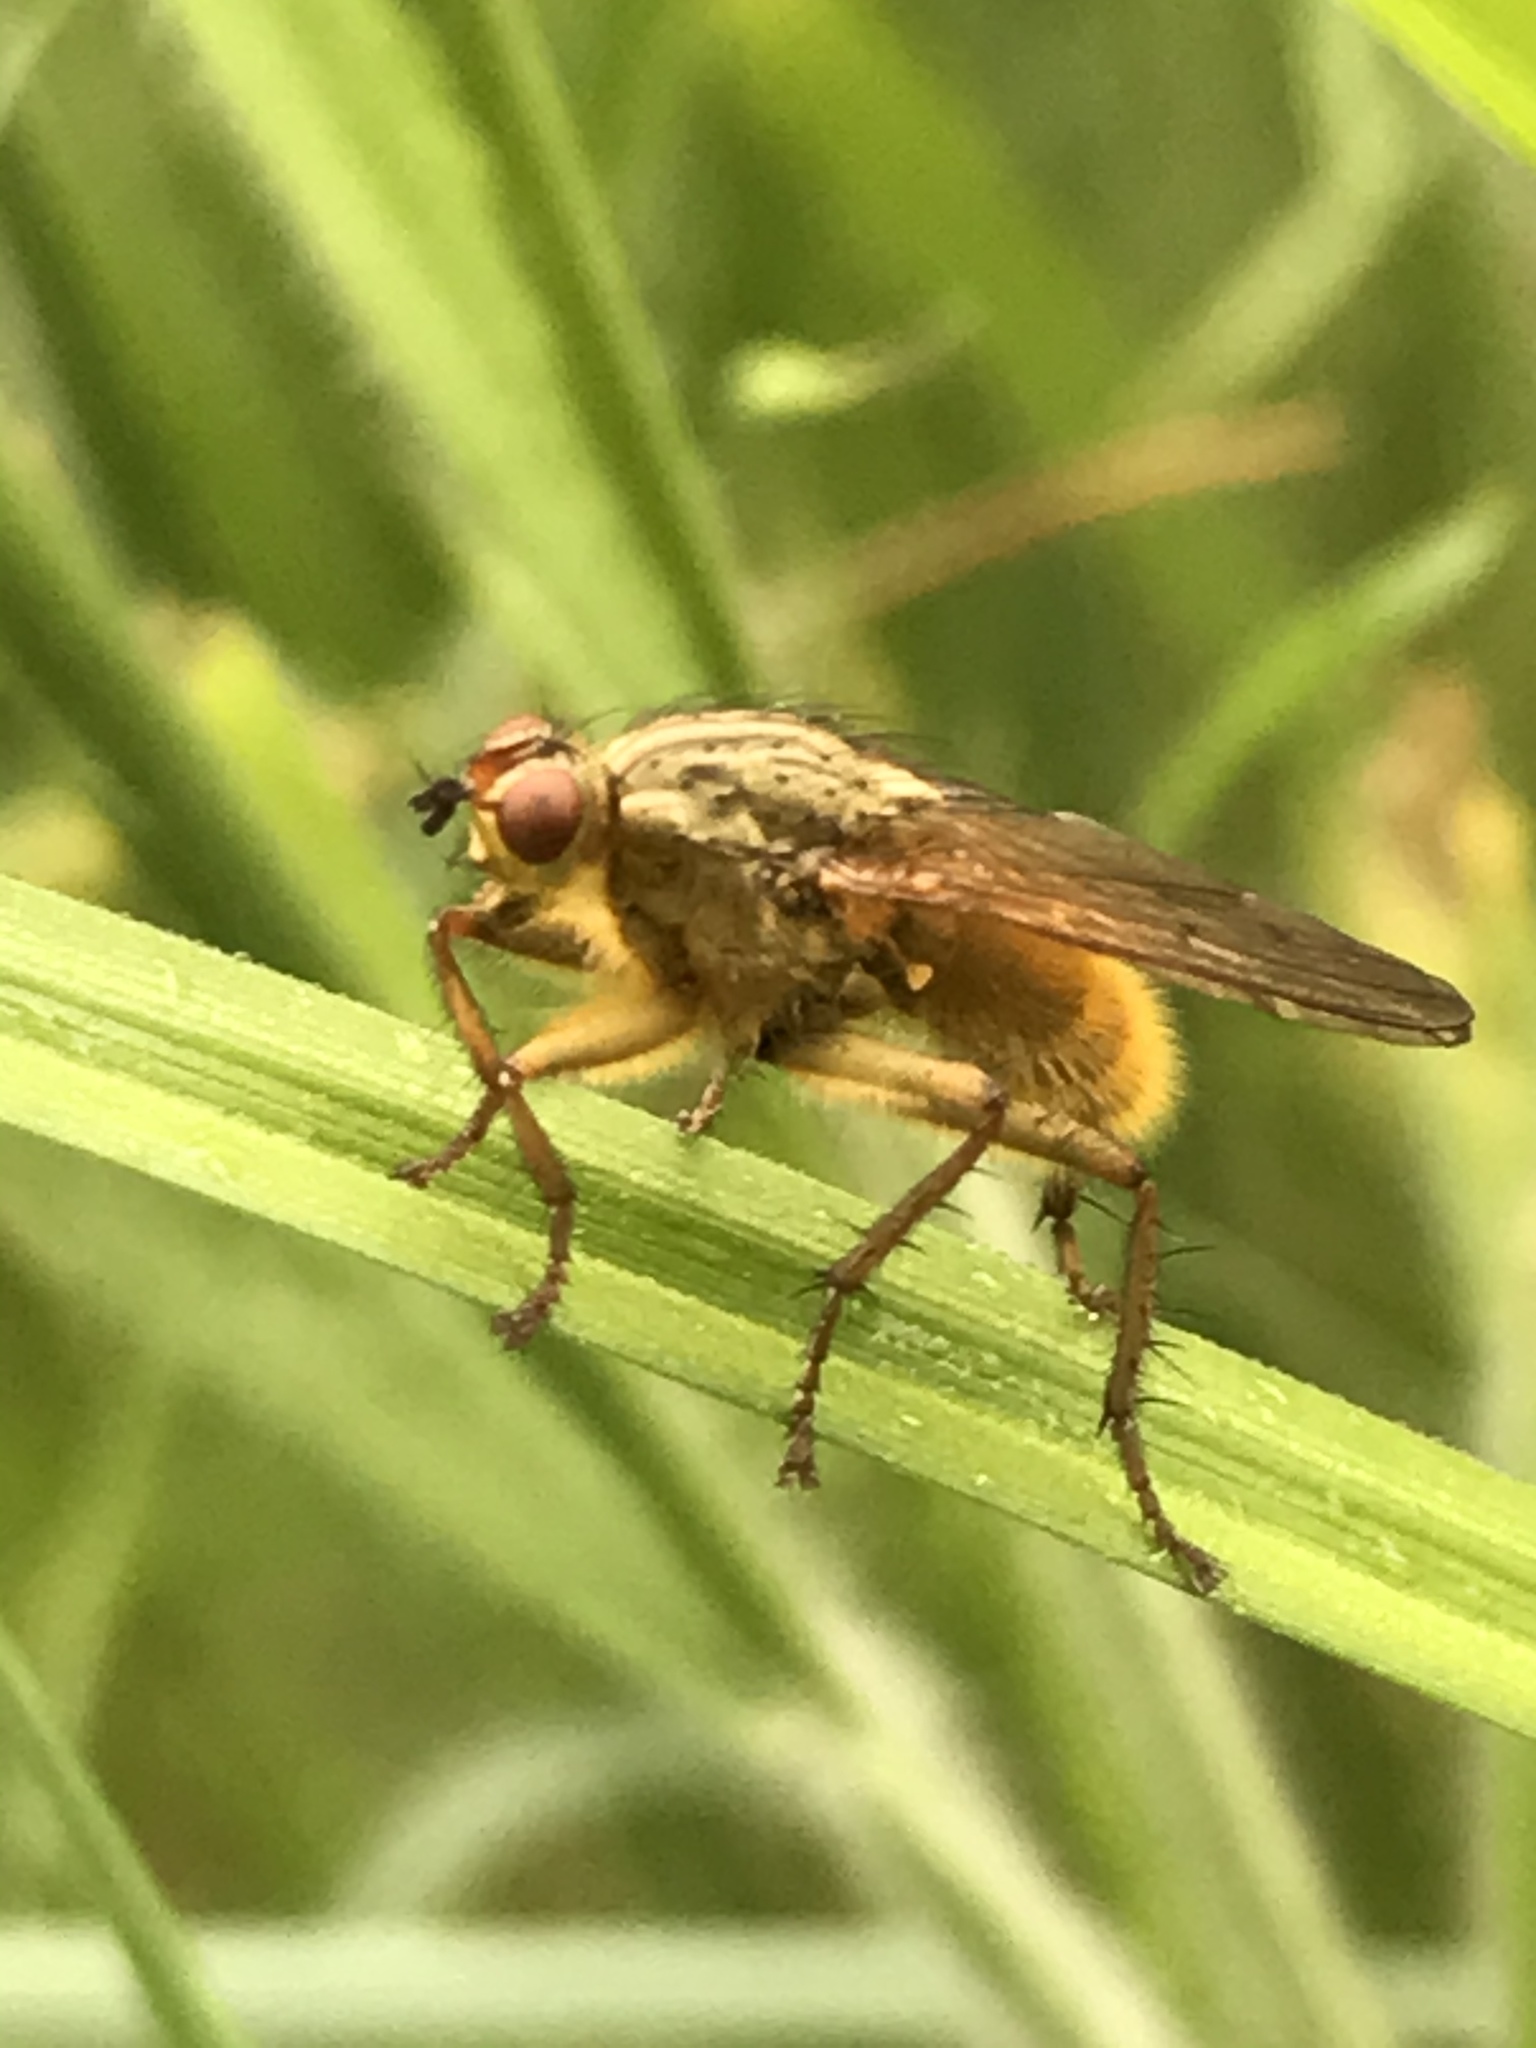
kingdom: Animalia
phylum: Arthropoda
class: Insecta
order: Diptera
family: Scathophagidae
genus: Scathophaga
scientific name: Scathophaga stercoraria
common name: Yellow dung fly
